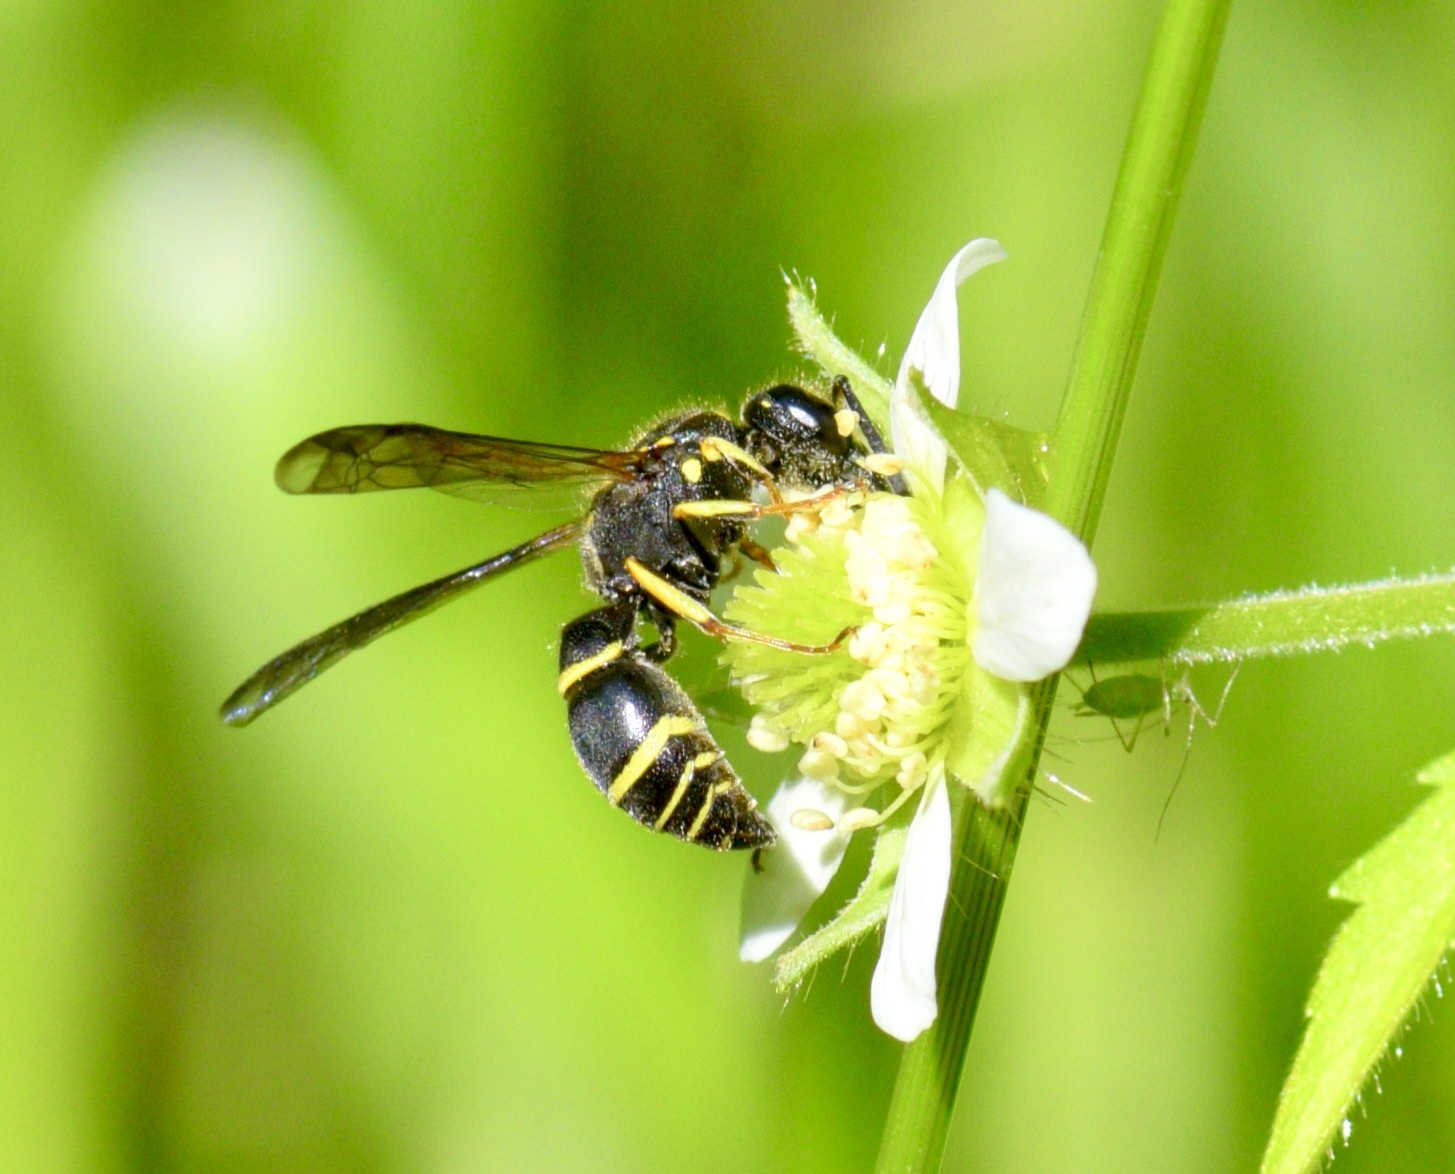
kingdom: Animalia
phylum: Arthropoda
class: Insecta
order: Hymenoptera
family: Vespidae
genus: Ancistrocerus
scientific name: Ancistrocerus adiabatus
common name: Bramble mason wasp
